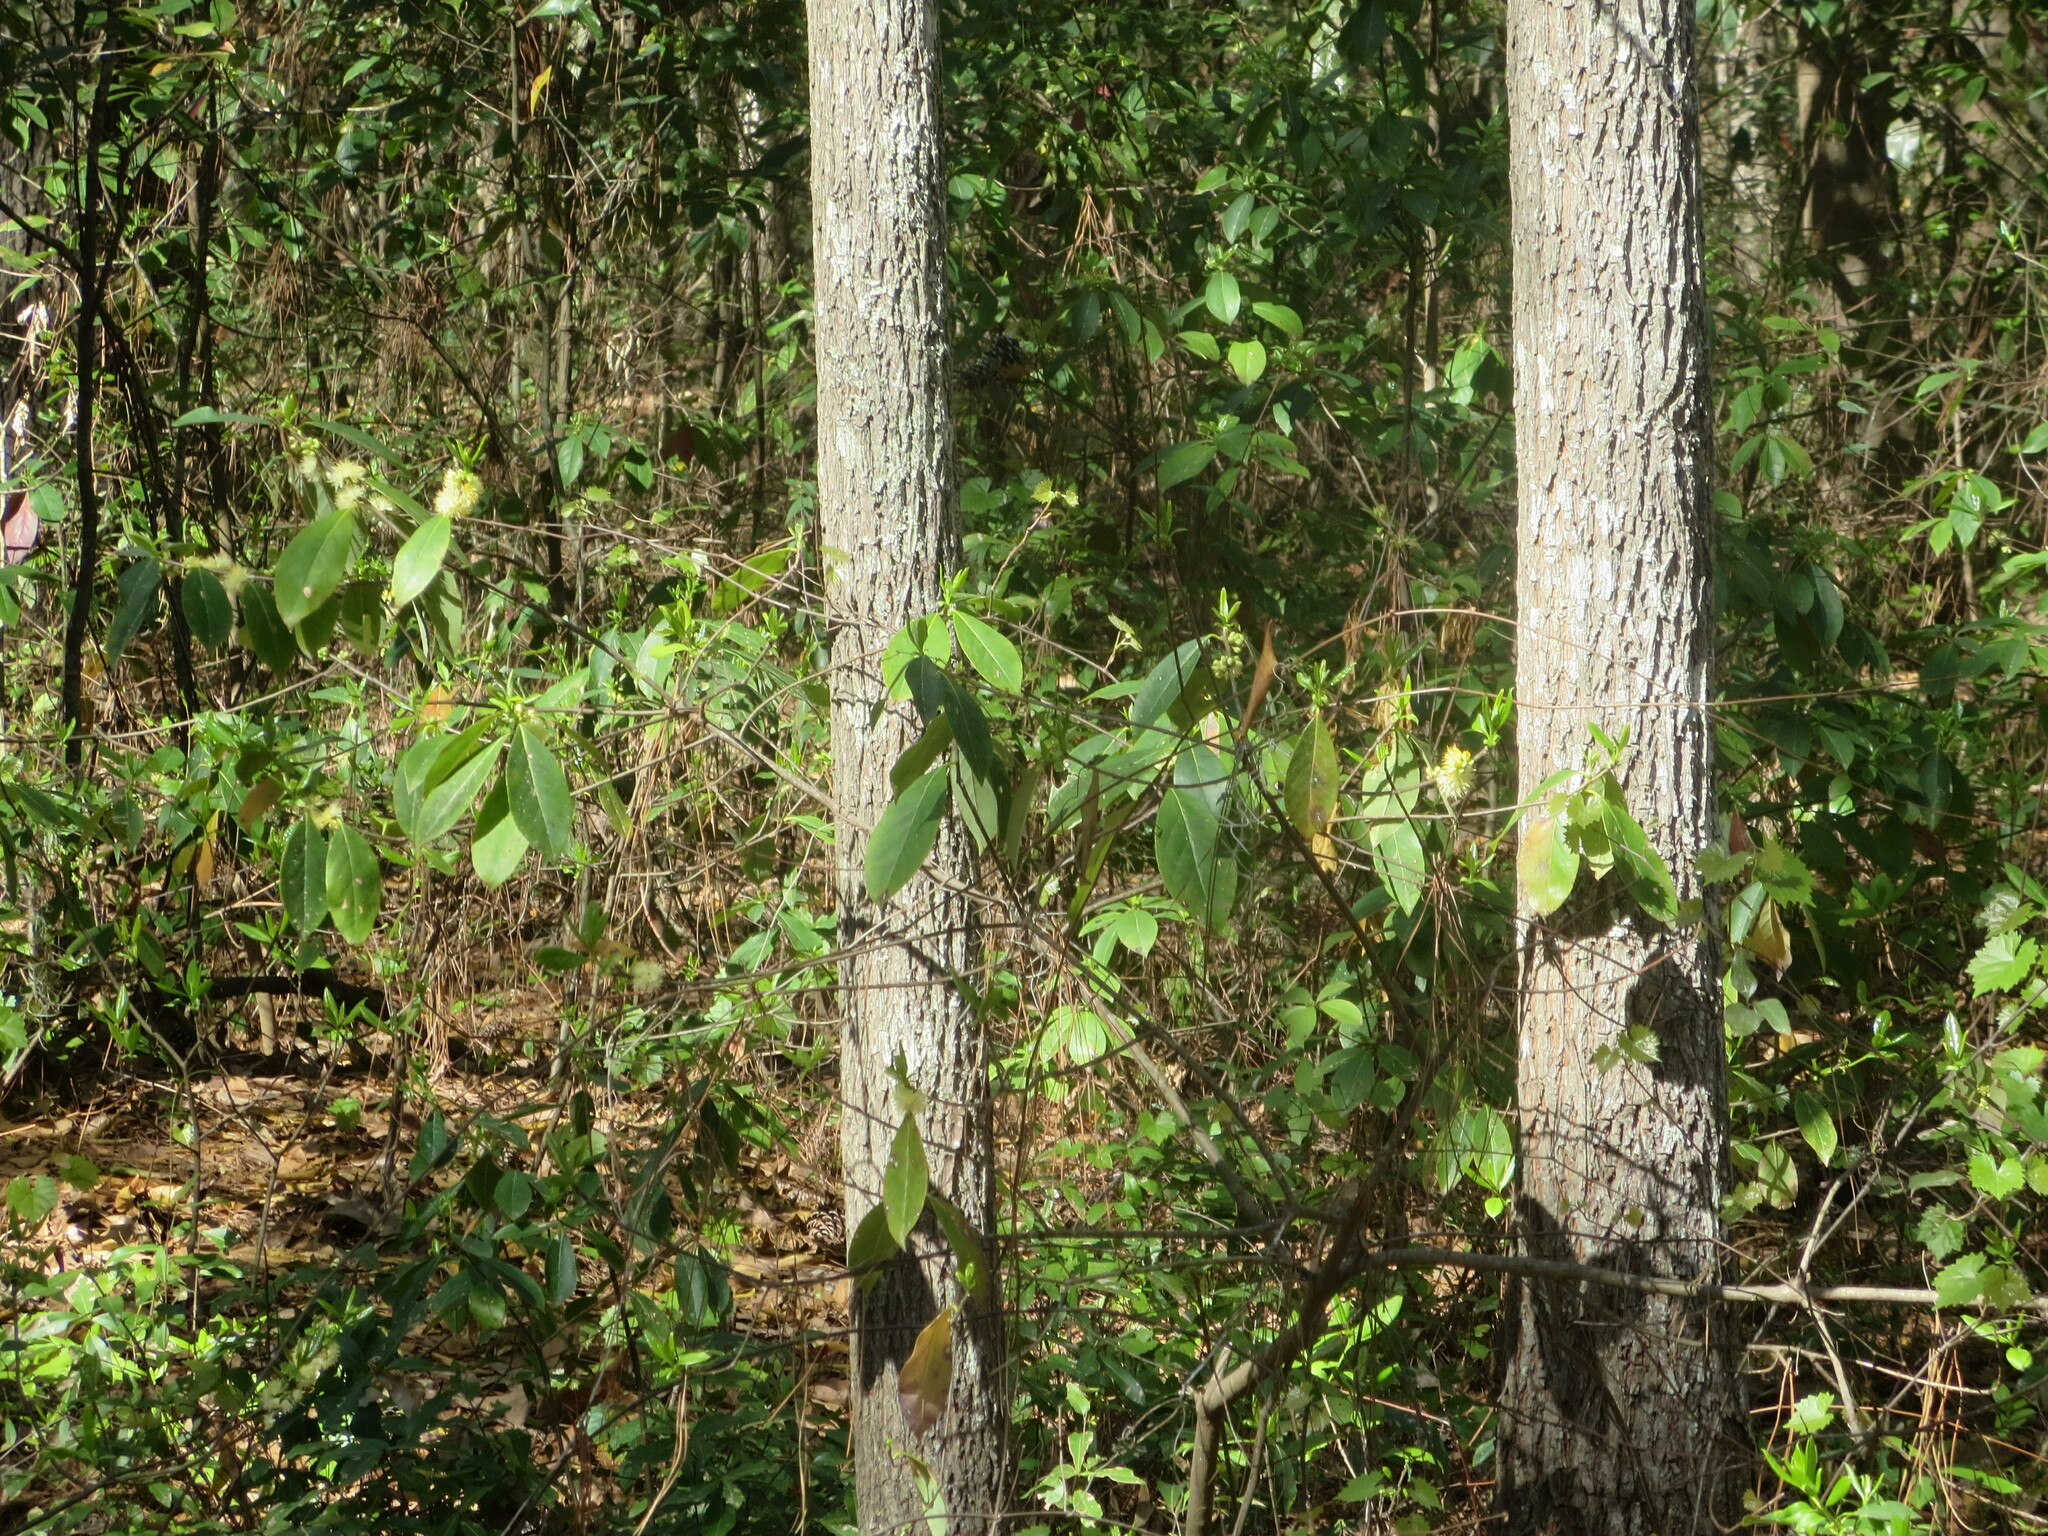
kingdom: Plantae
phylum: Tracheophyta
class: Magnoliopsida
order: Ericales
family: Symplocaceae
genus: Symplocos
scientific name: Symplocos tinctoria
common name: Horse-sugar
